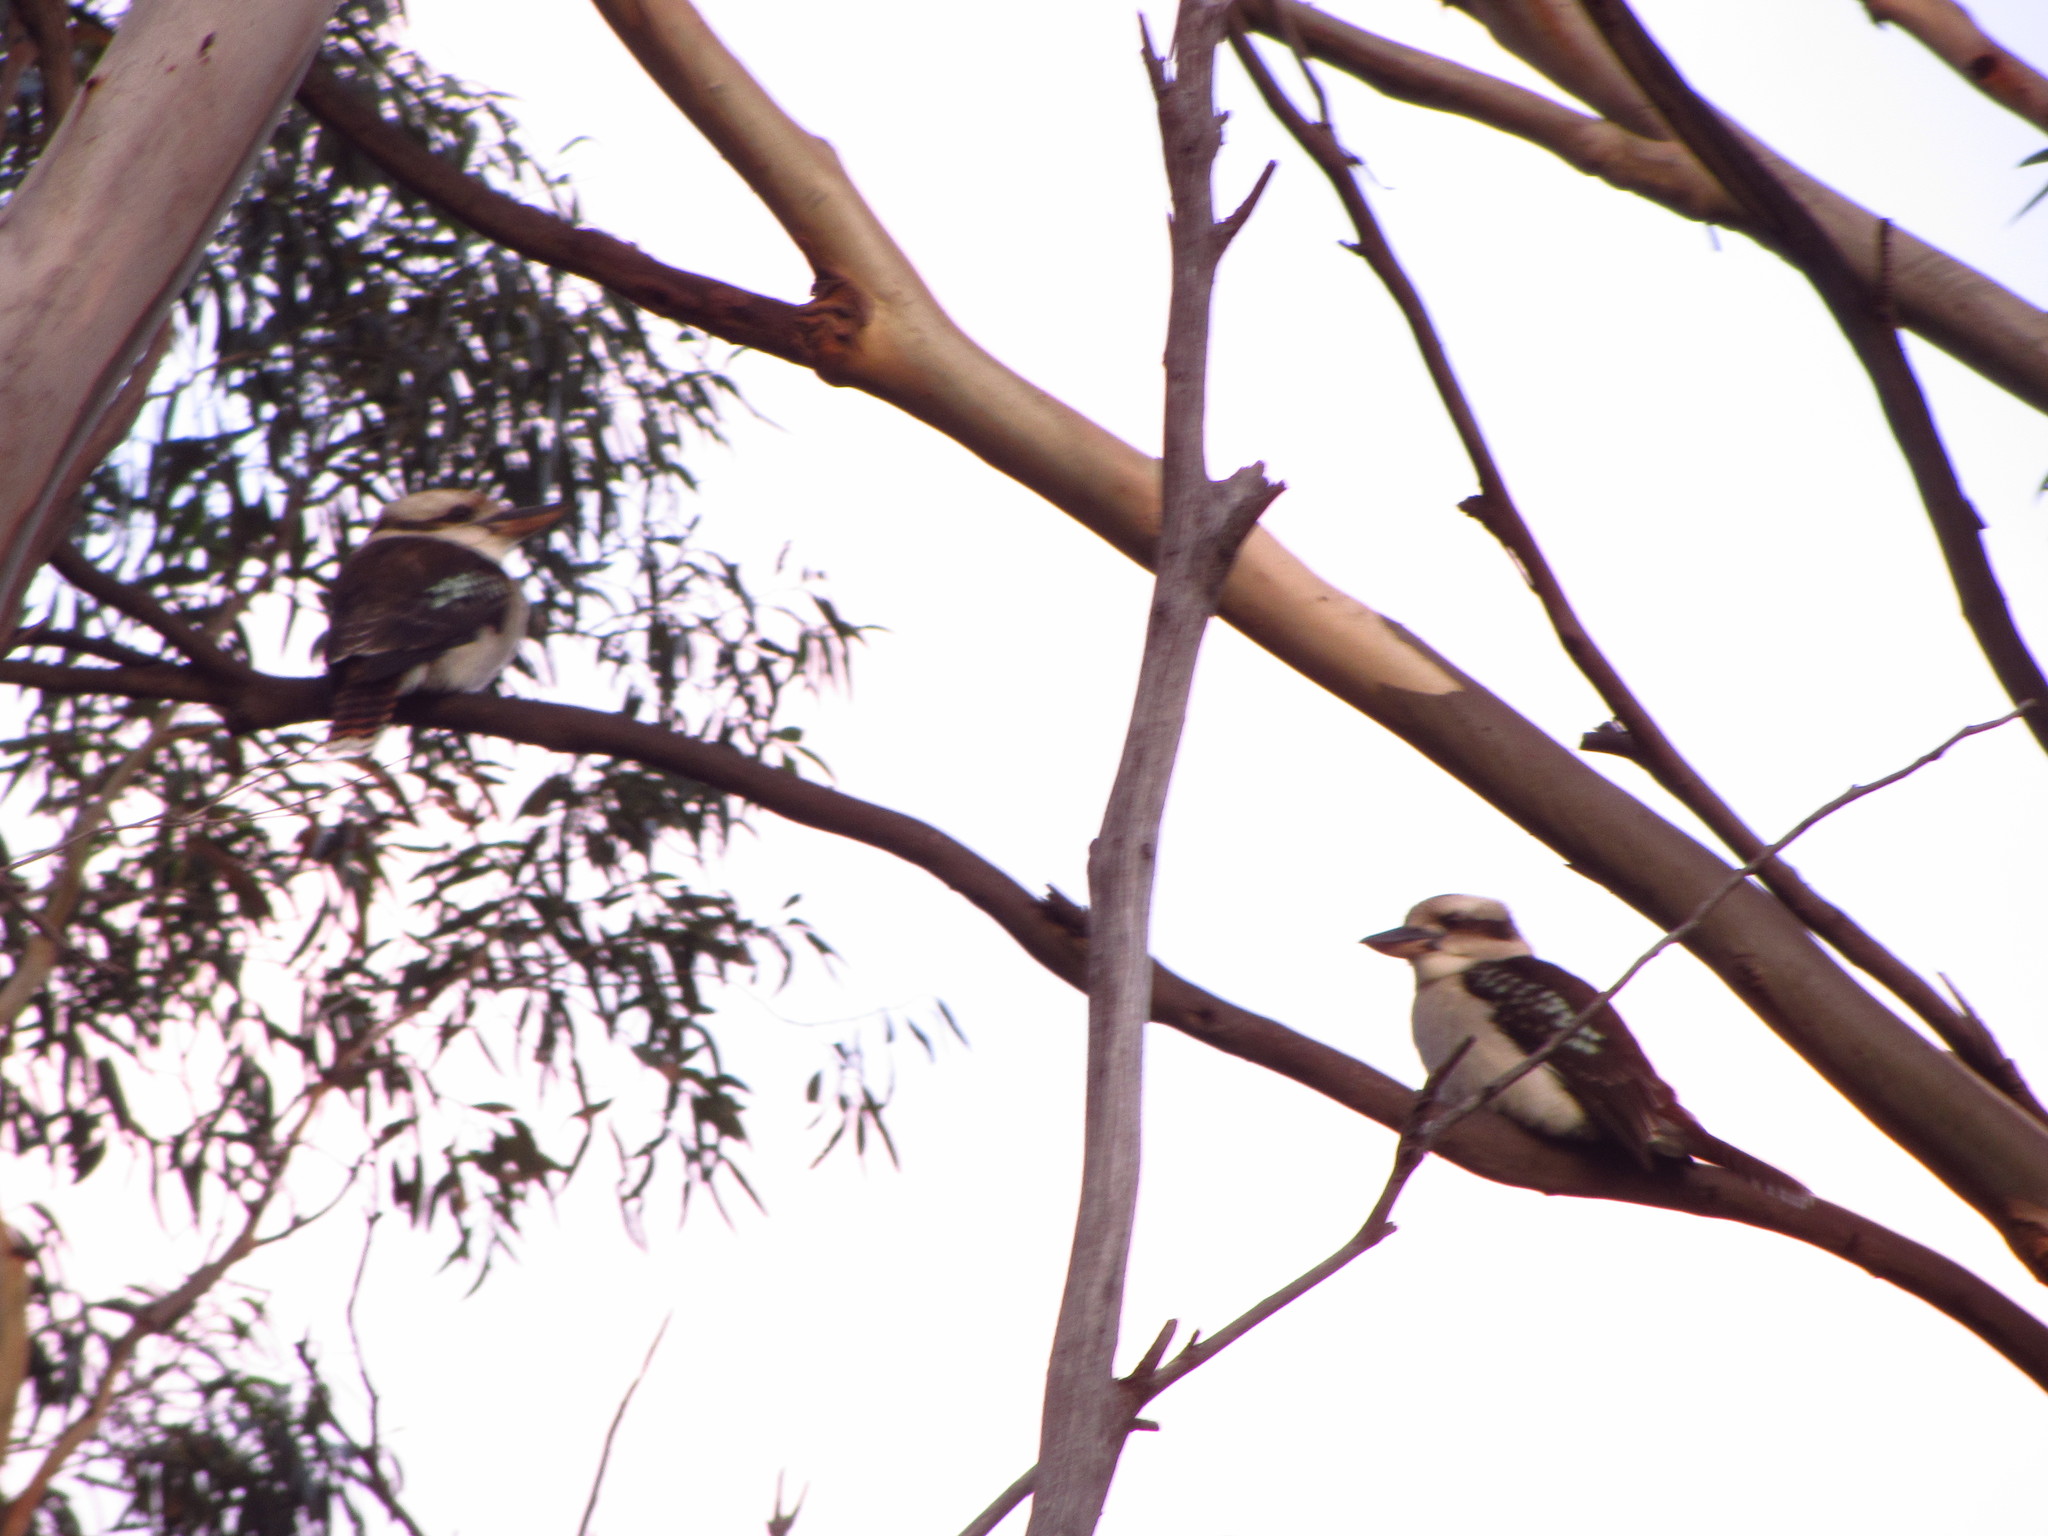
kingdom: Animalia
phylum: Chordata
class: Aves
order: Coraciiformes
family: Alcedinidae
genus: Dacelo
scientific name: Dacelo novaeguineae
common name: Laughing kookaburra
